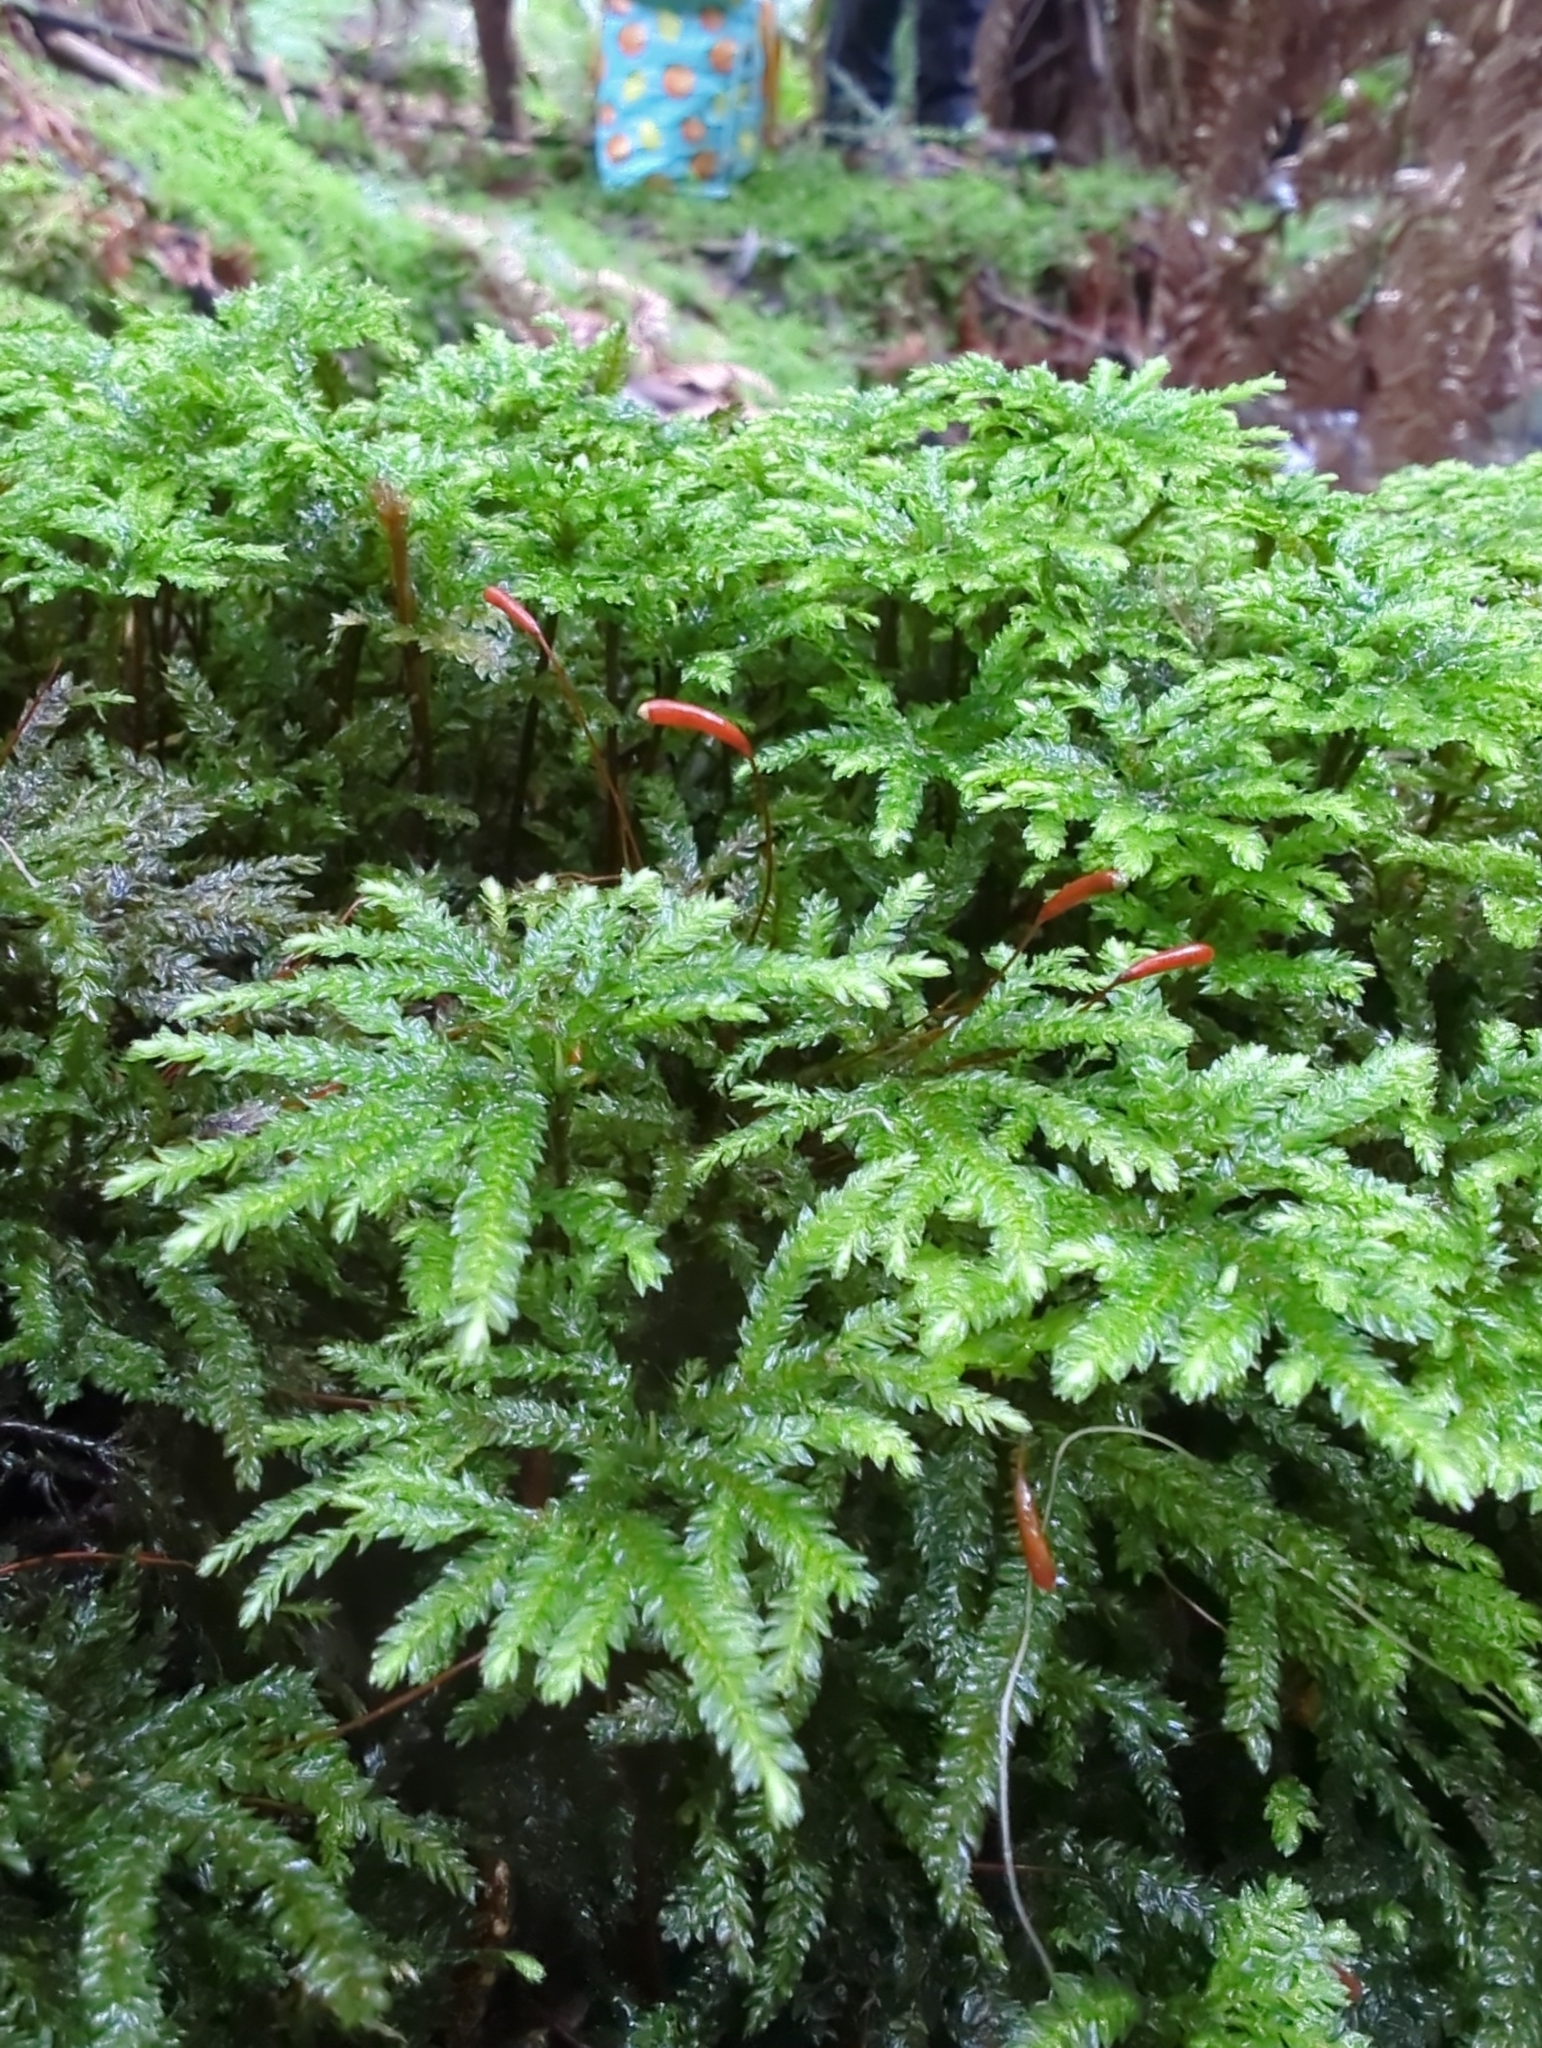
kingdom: Plantae
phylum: Bryophyta
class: Bryopsida
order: Hypnodendrales
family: Spiridentaceae
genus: Hypnodendron
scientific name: Hypnodendron vitiense
